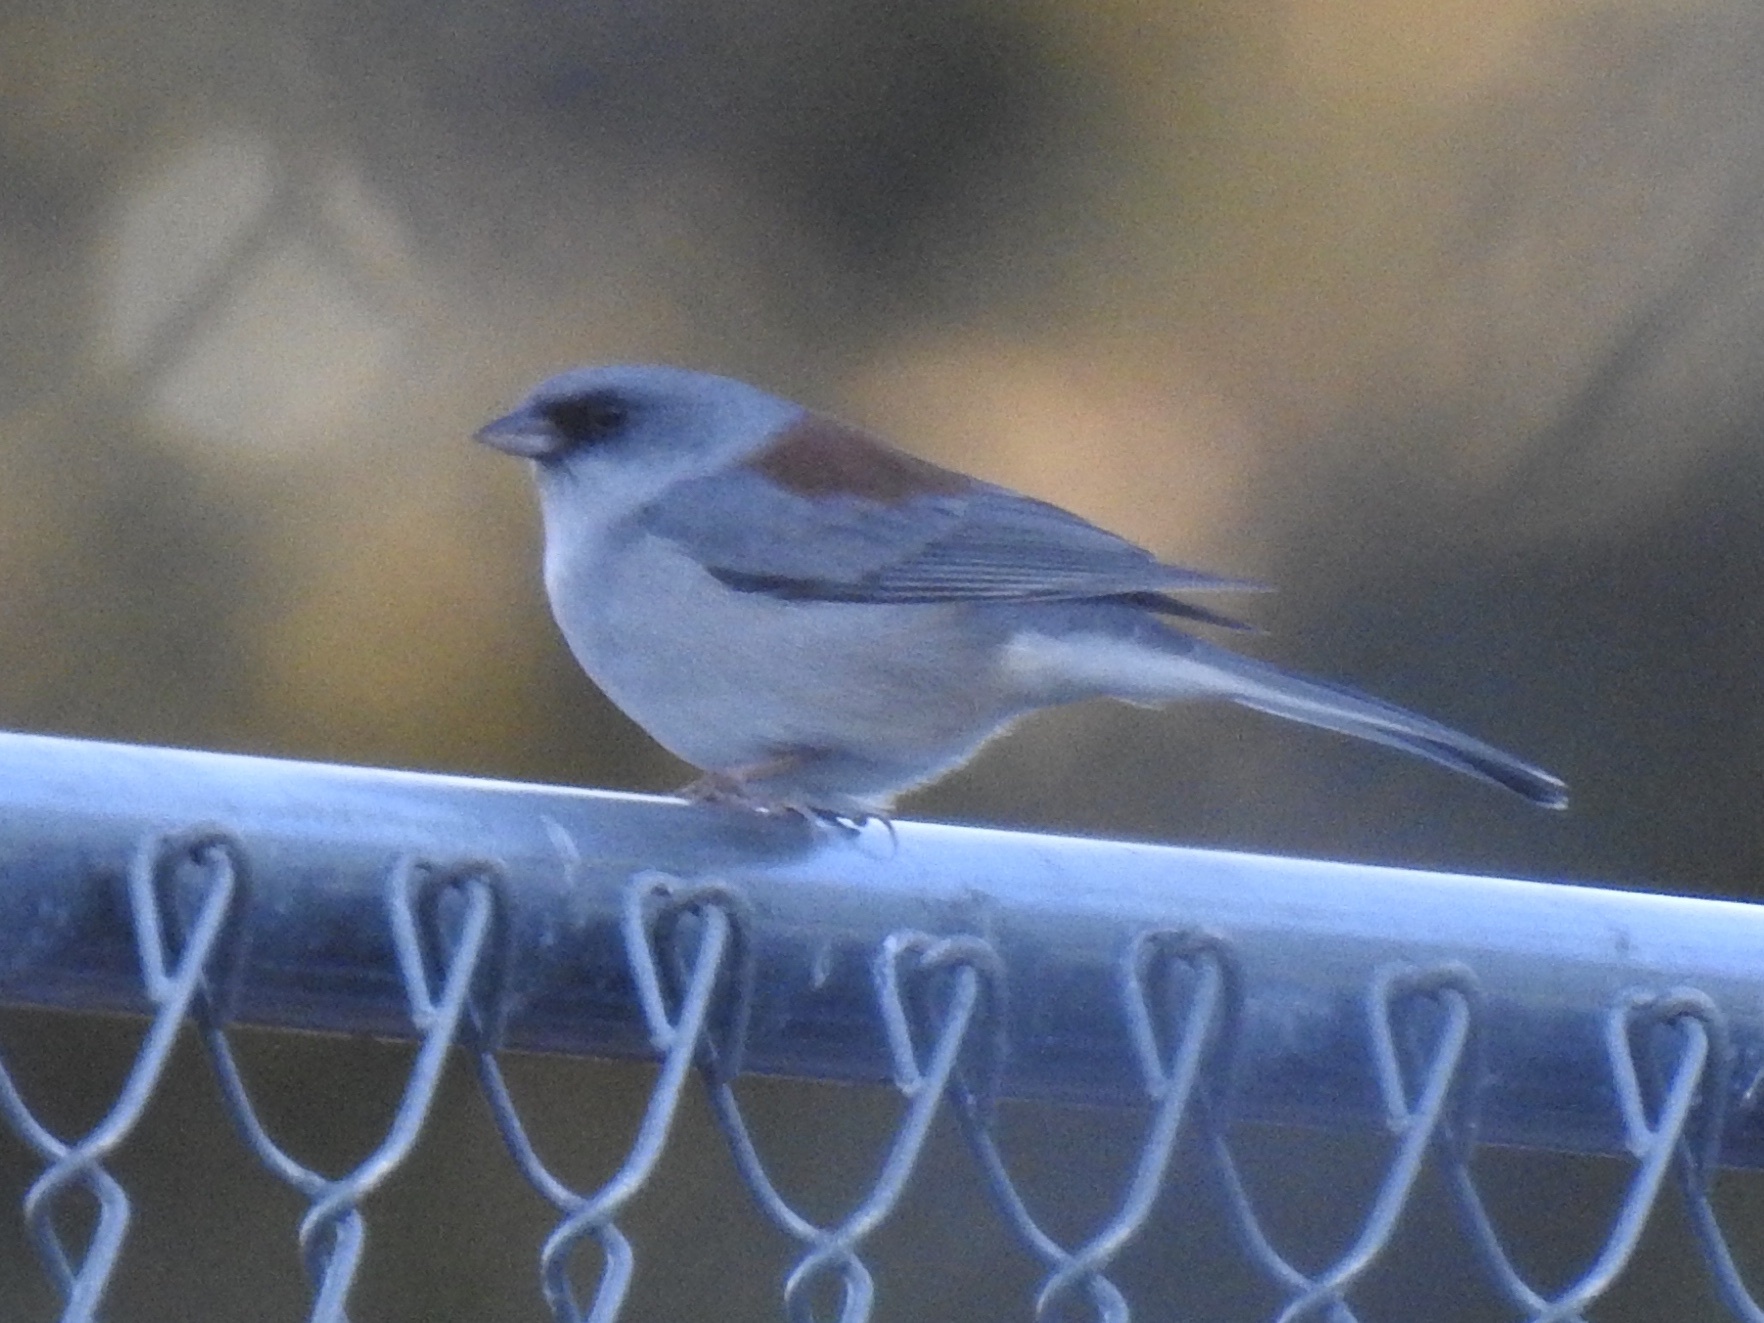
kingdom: Animalia
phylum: Chordata
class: Aves
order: Passeriformes
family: Passerellidae
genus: Junco
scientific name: Junco hyemalis
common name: Dark-eyed junco
